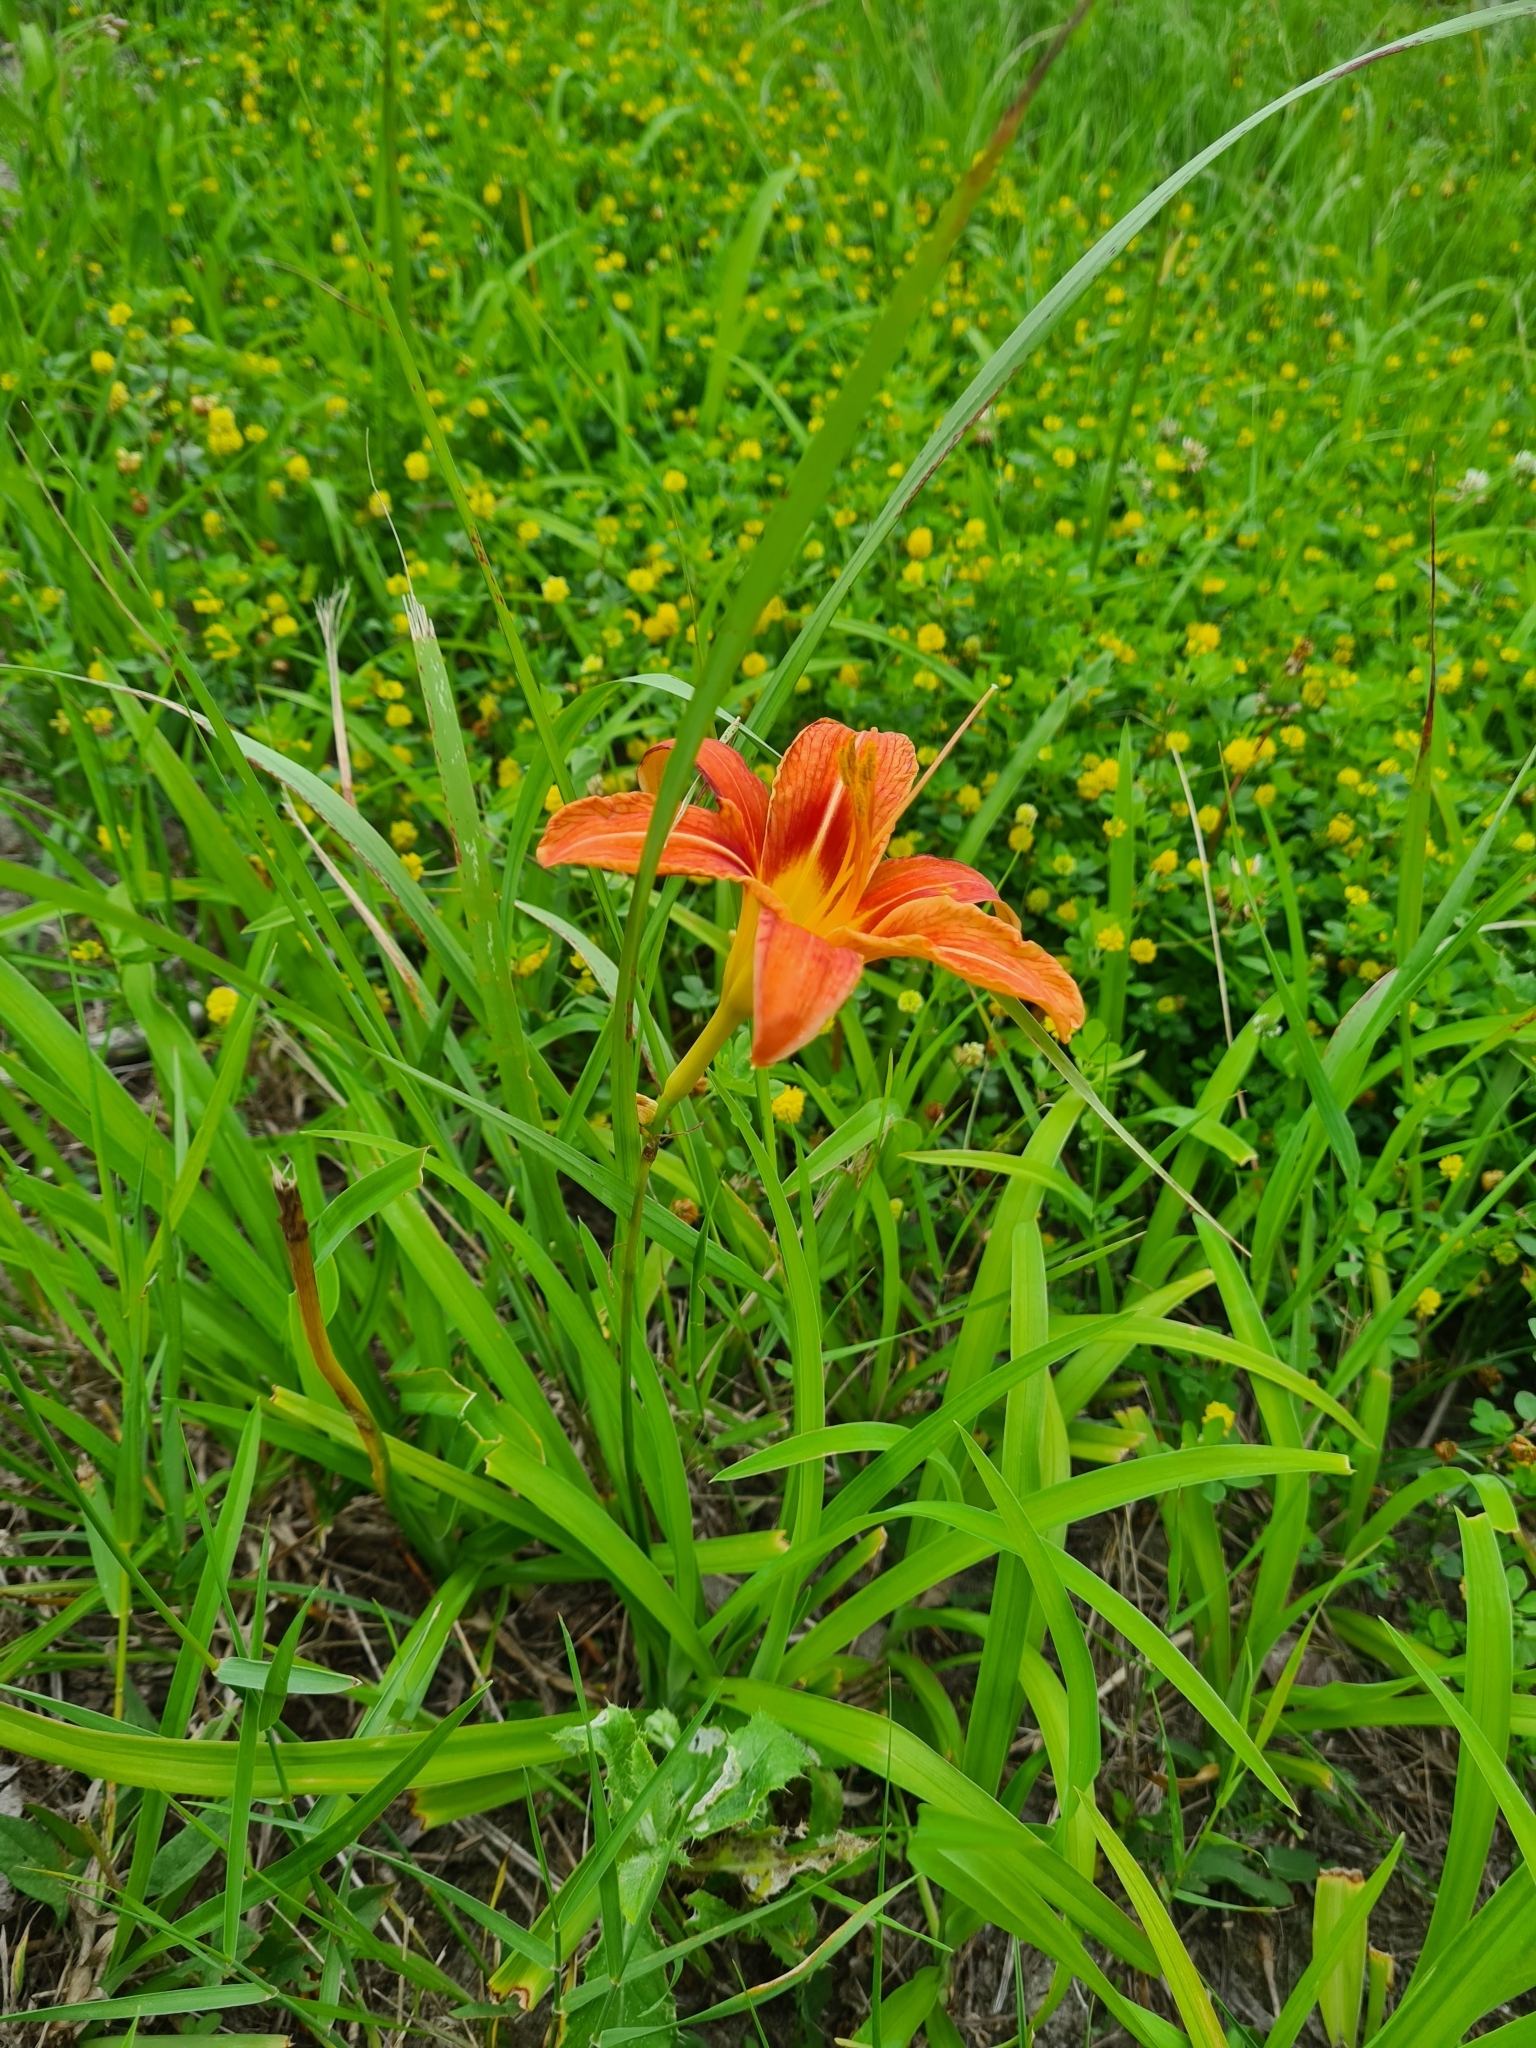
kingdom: Plantae
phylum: Tracheophyta
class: Liliopsida
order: Asparagales
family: Asphodelaceae
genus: Hemerocallis
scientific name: Hemerocallis fulva
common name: Orange day-lily
